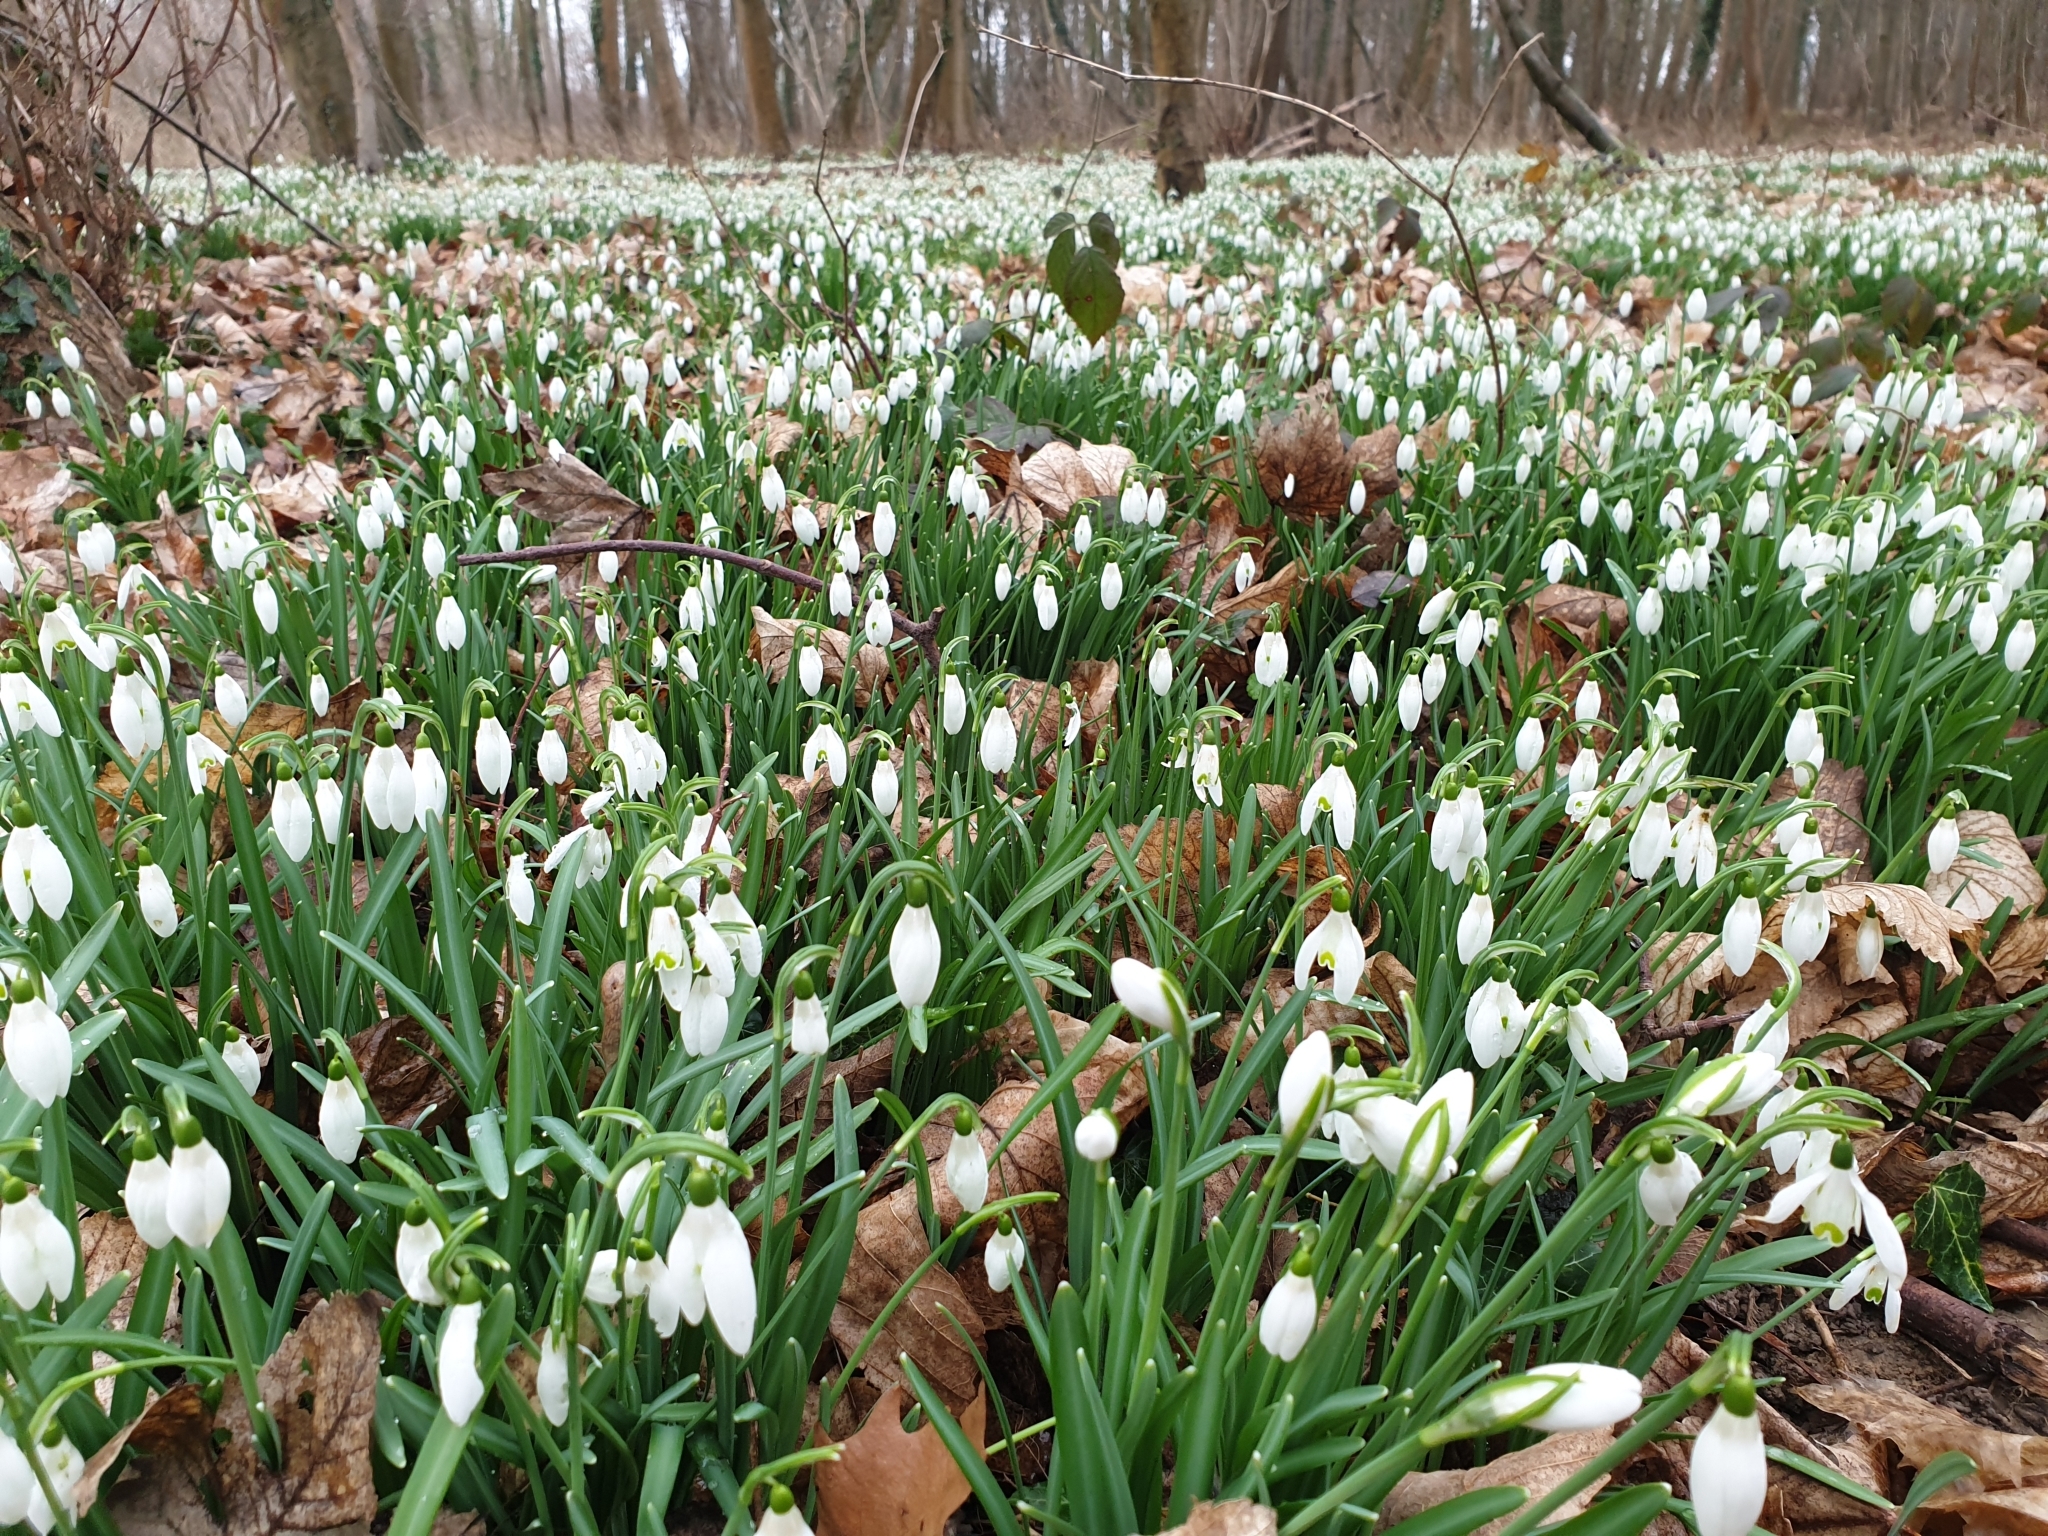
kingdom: Plantae
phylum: Tracheophyta
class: Liliopsida
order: Asparagales
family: Amaryllidaceae
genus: Galanthus
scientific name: Galanthus nivalis
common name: Snowdrop
